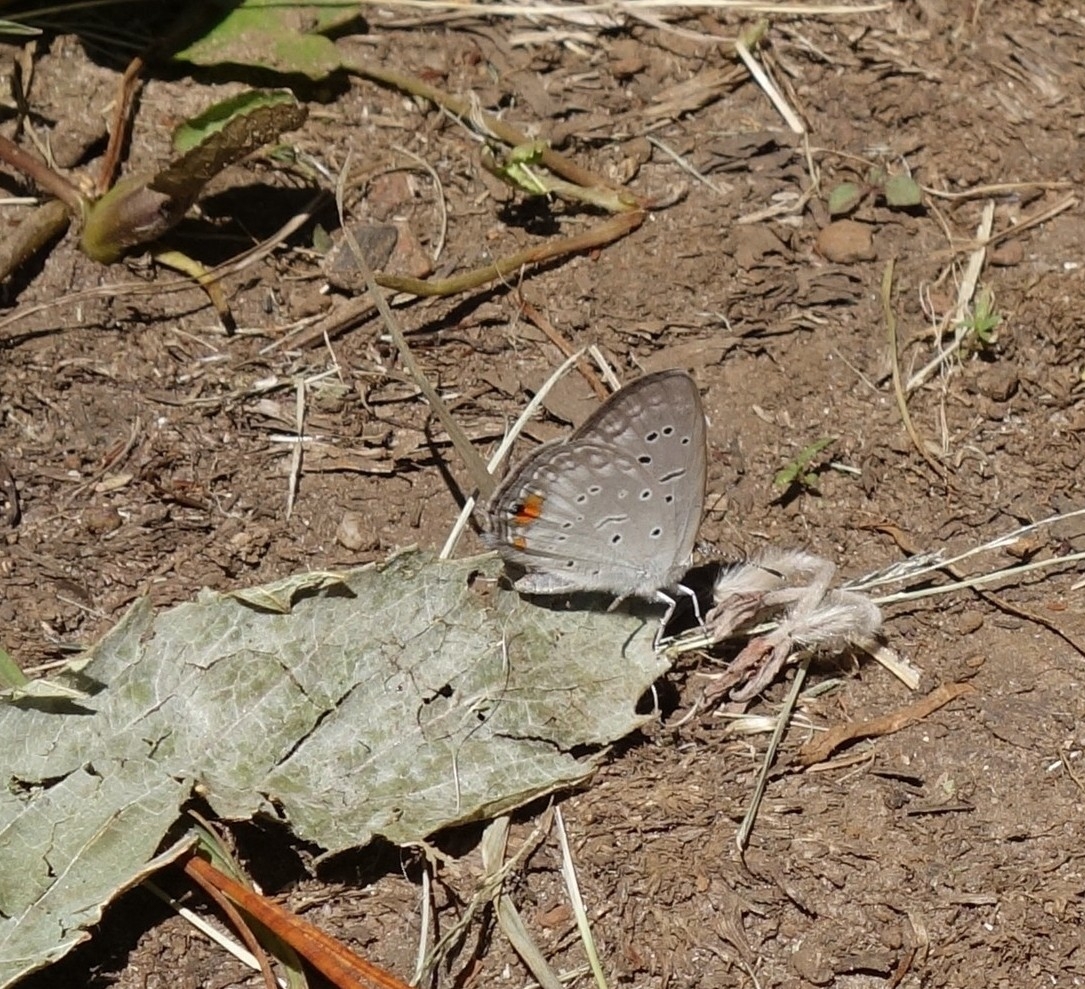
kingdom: Animalia
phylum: Arthropoda
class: Insecta
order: Lepidoptera
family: Lycaenidae
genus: Cupido
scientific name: Cupido cissus
